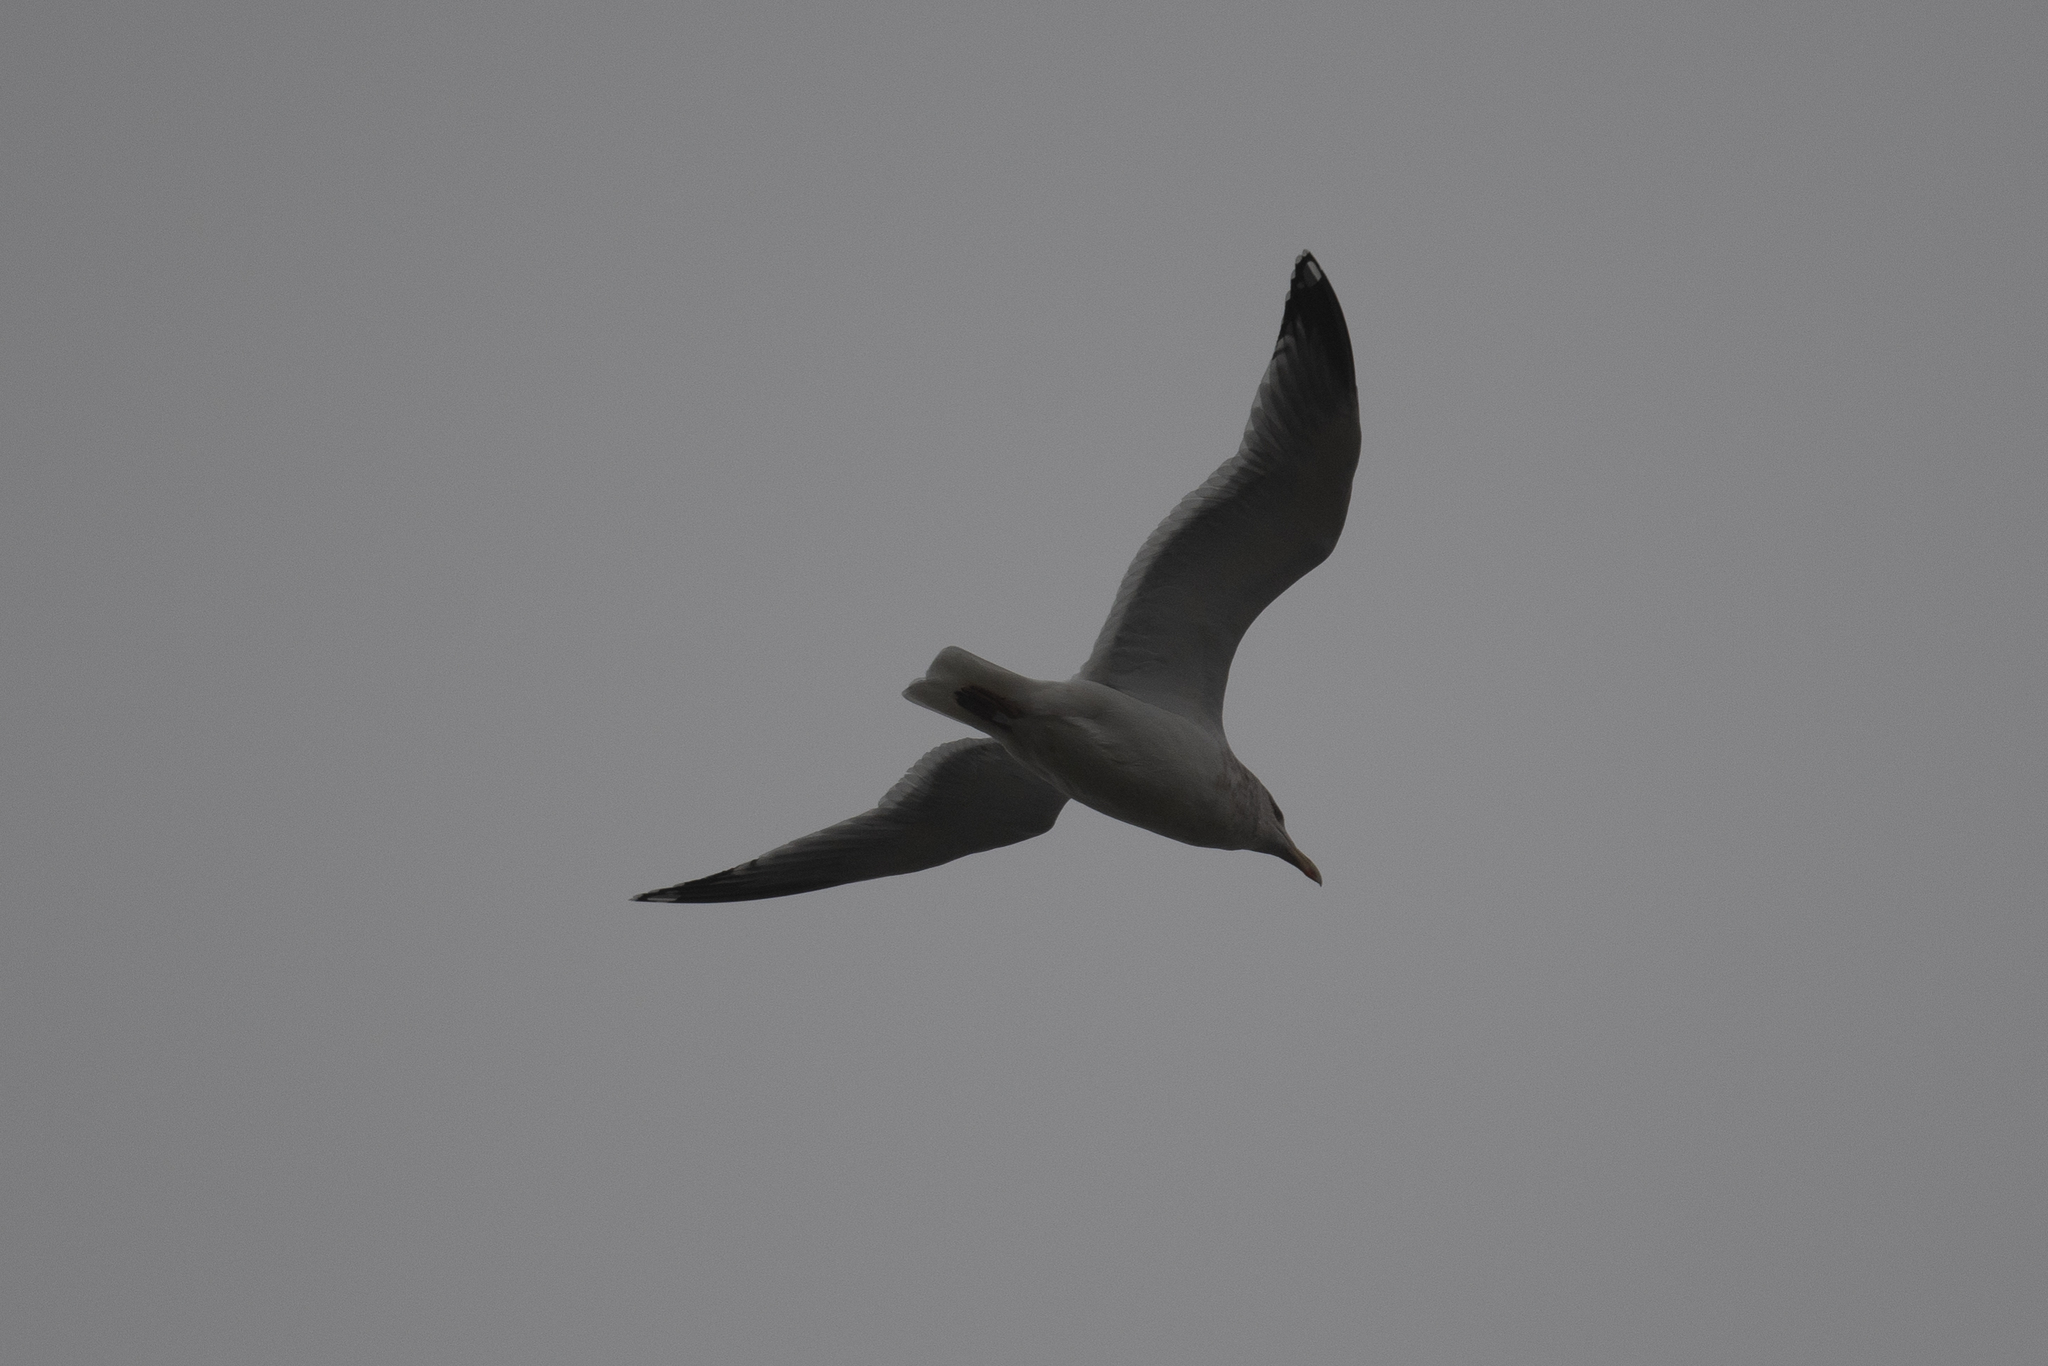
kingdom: Animalia
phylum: Chordata
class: Aves
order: Charadriiformes
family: Laridae
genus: Larus
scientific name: Larus californicus
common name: California gull
